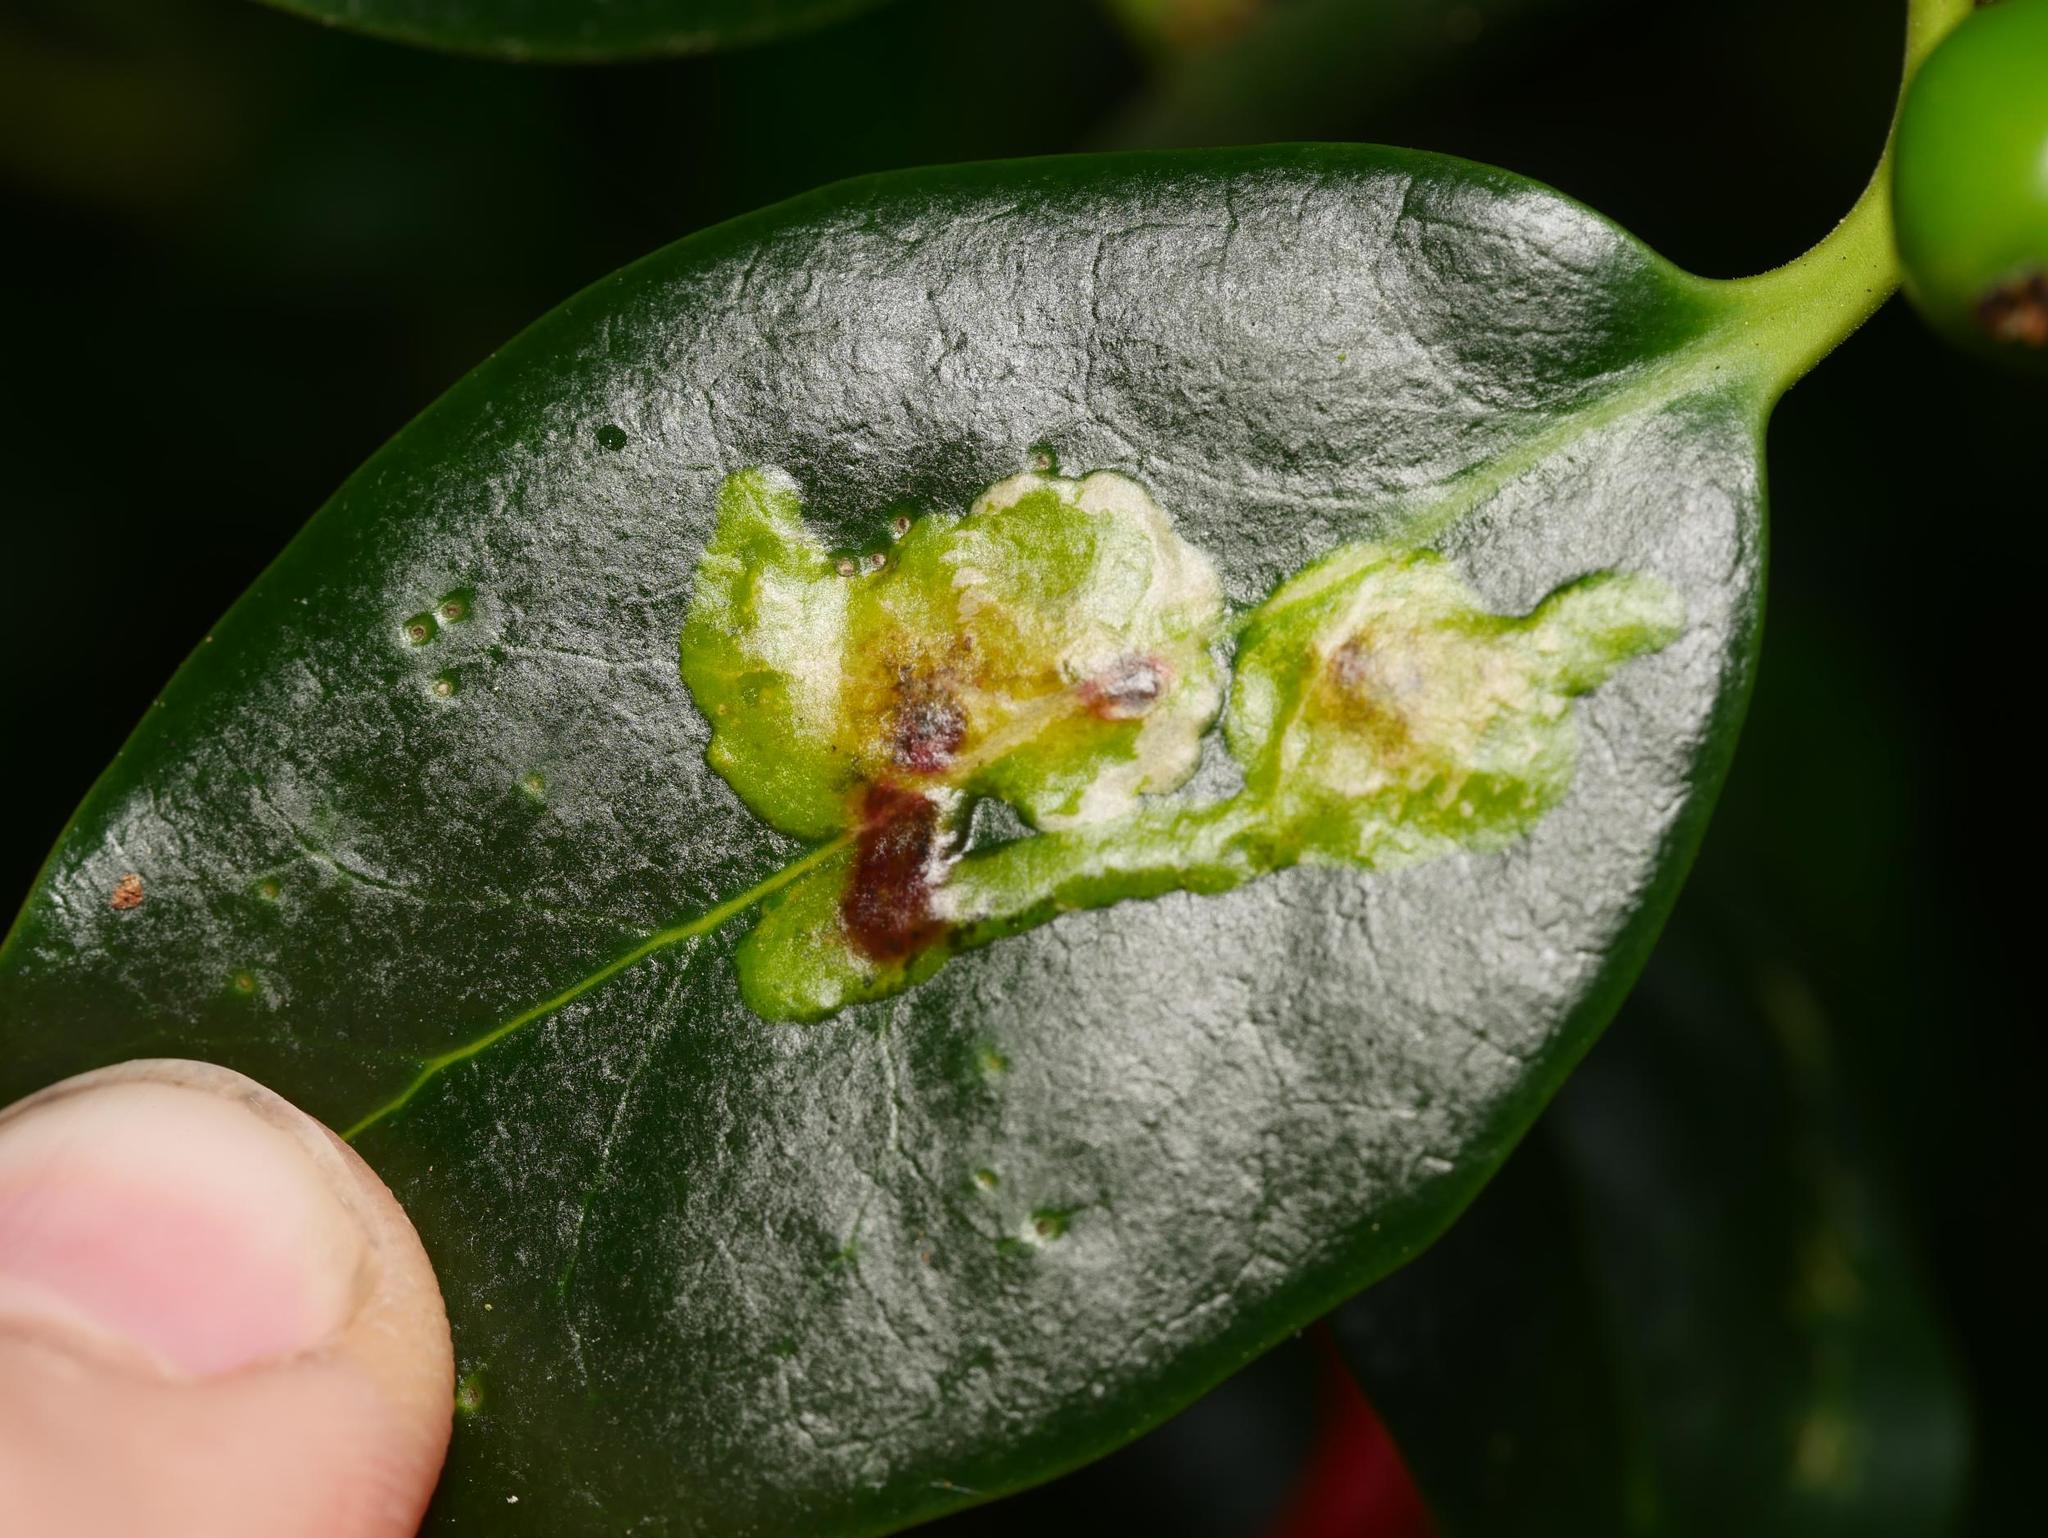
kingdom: Animalia
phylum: Arthropoda
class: Insecta
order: Diptera
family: Agromyzidae
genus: Phytomyza
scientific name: Phytomyza ilicis
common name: Holly leafminer
